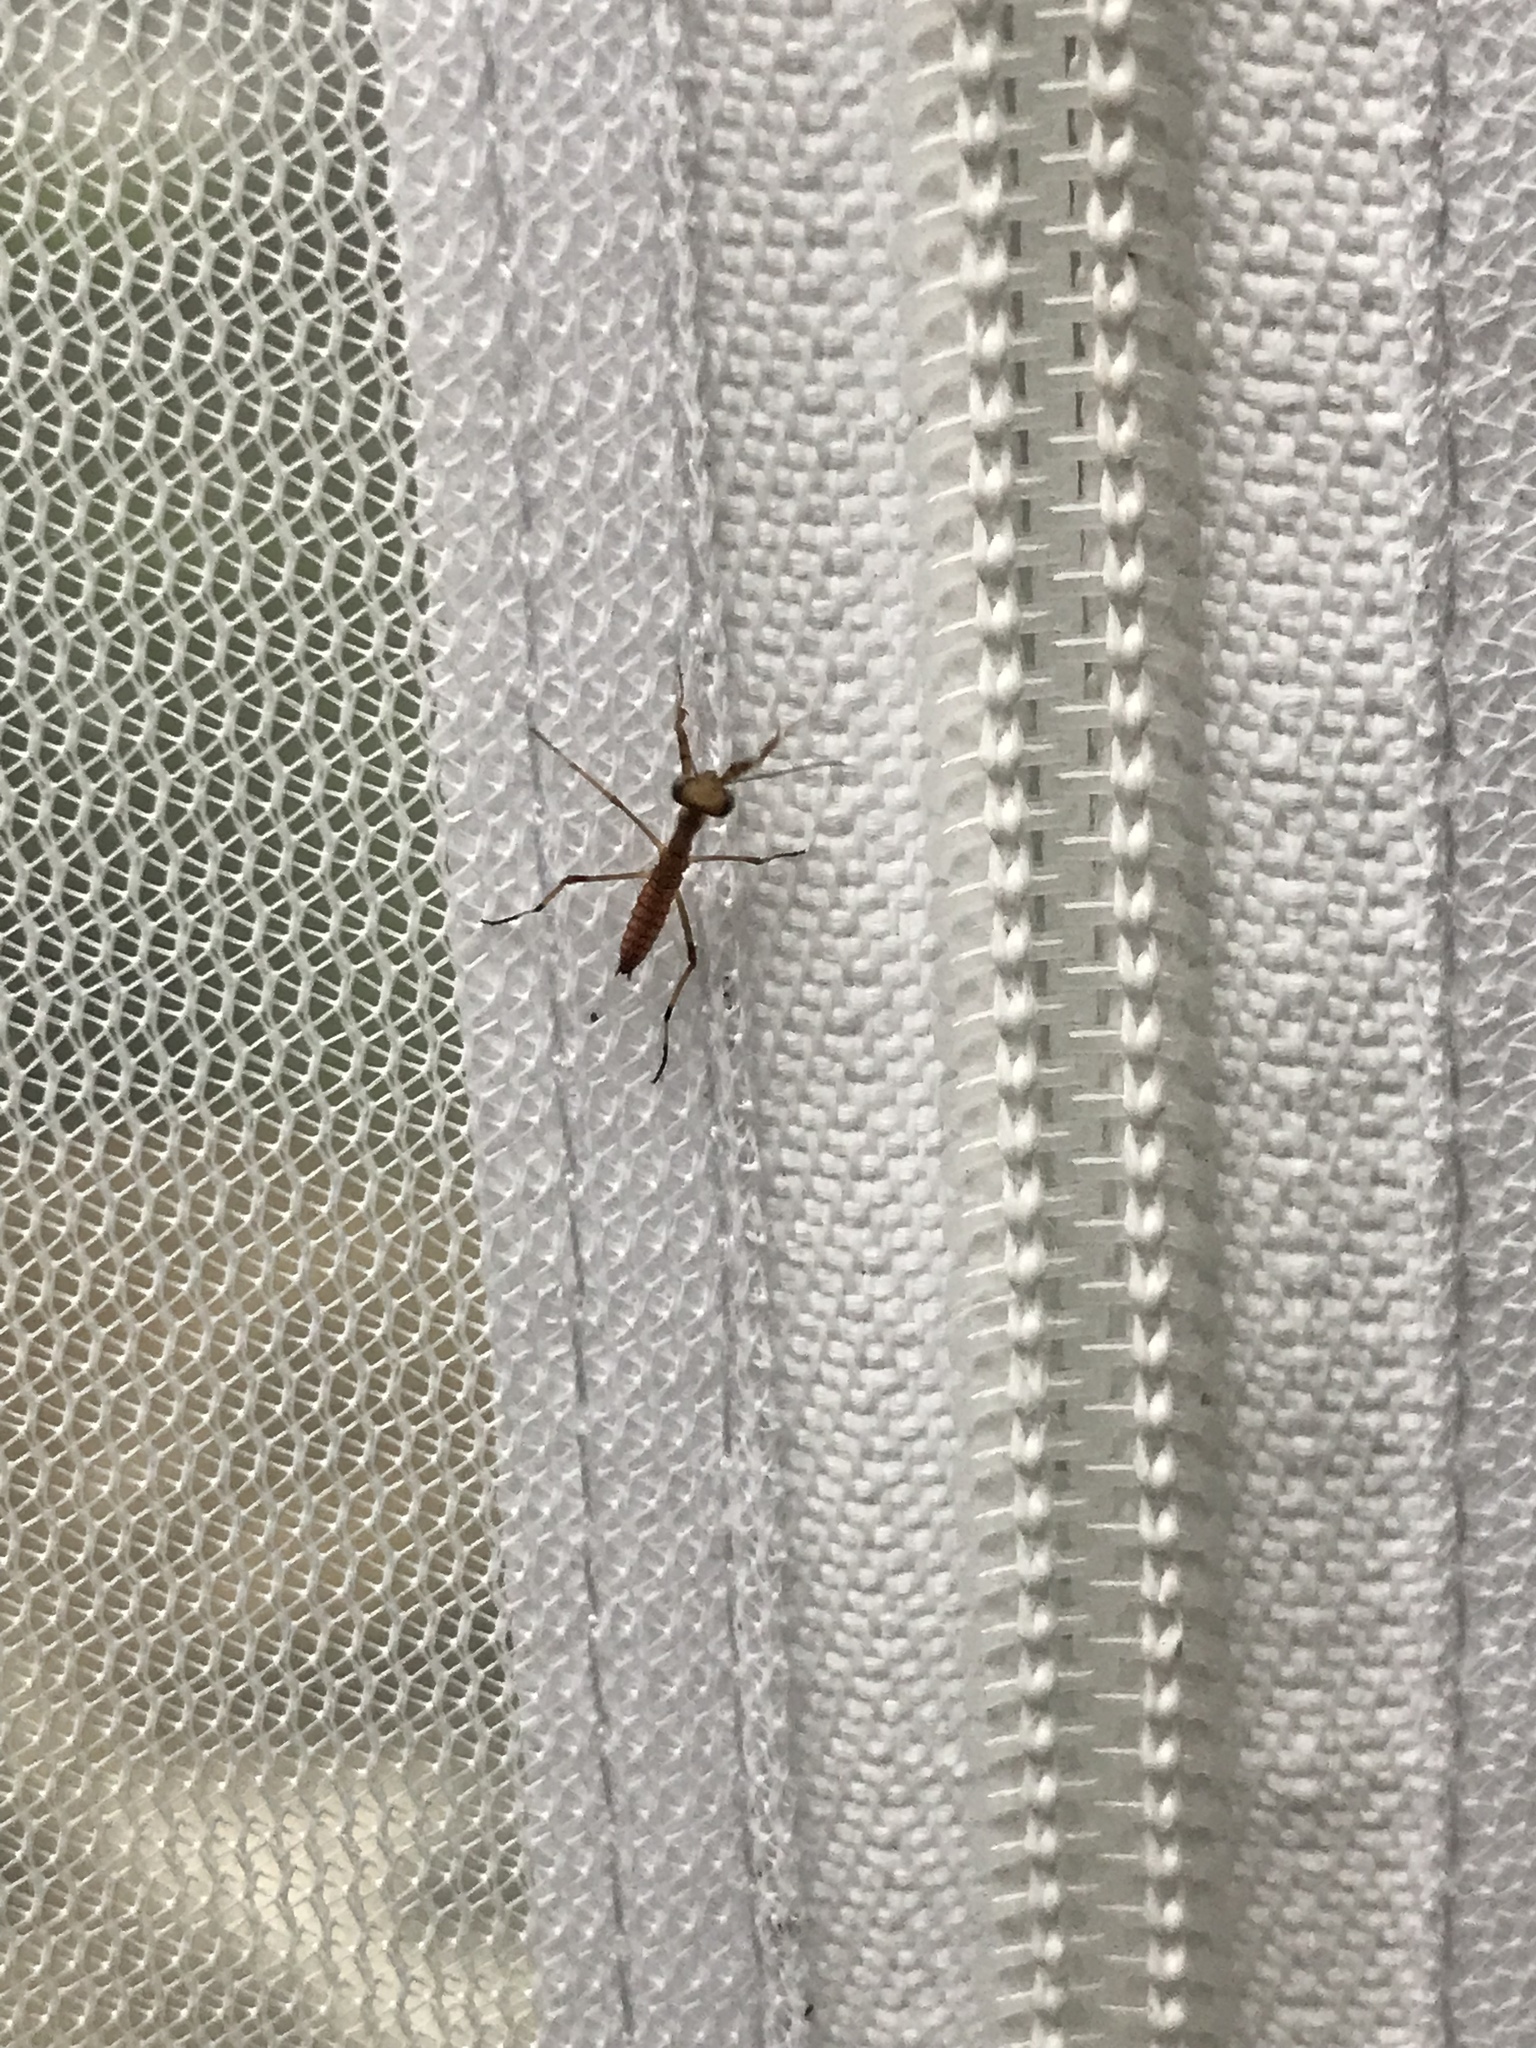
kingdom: Animalia
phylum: Arthropoda
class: Insecta
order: Mantodea
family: Mantidae
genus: Stagmomantis
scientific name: Stagmomantis carolina
